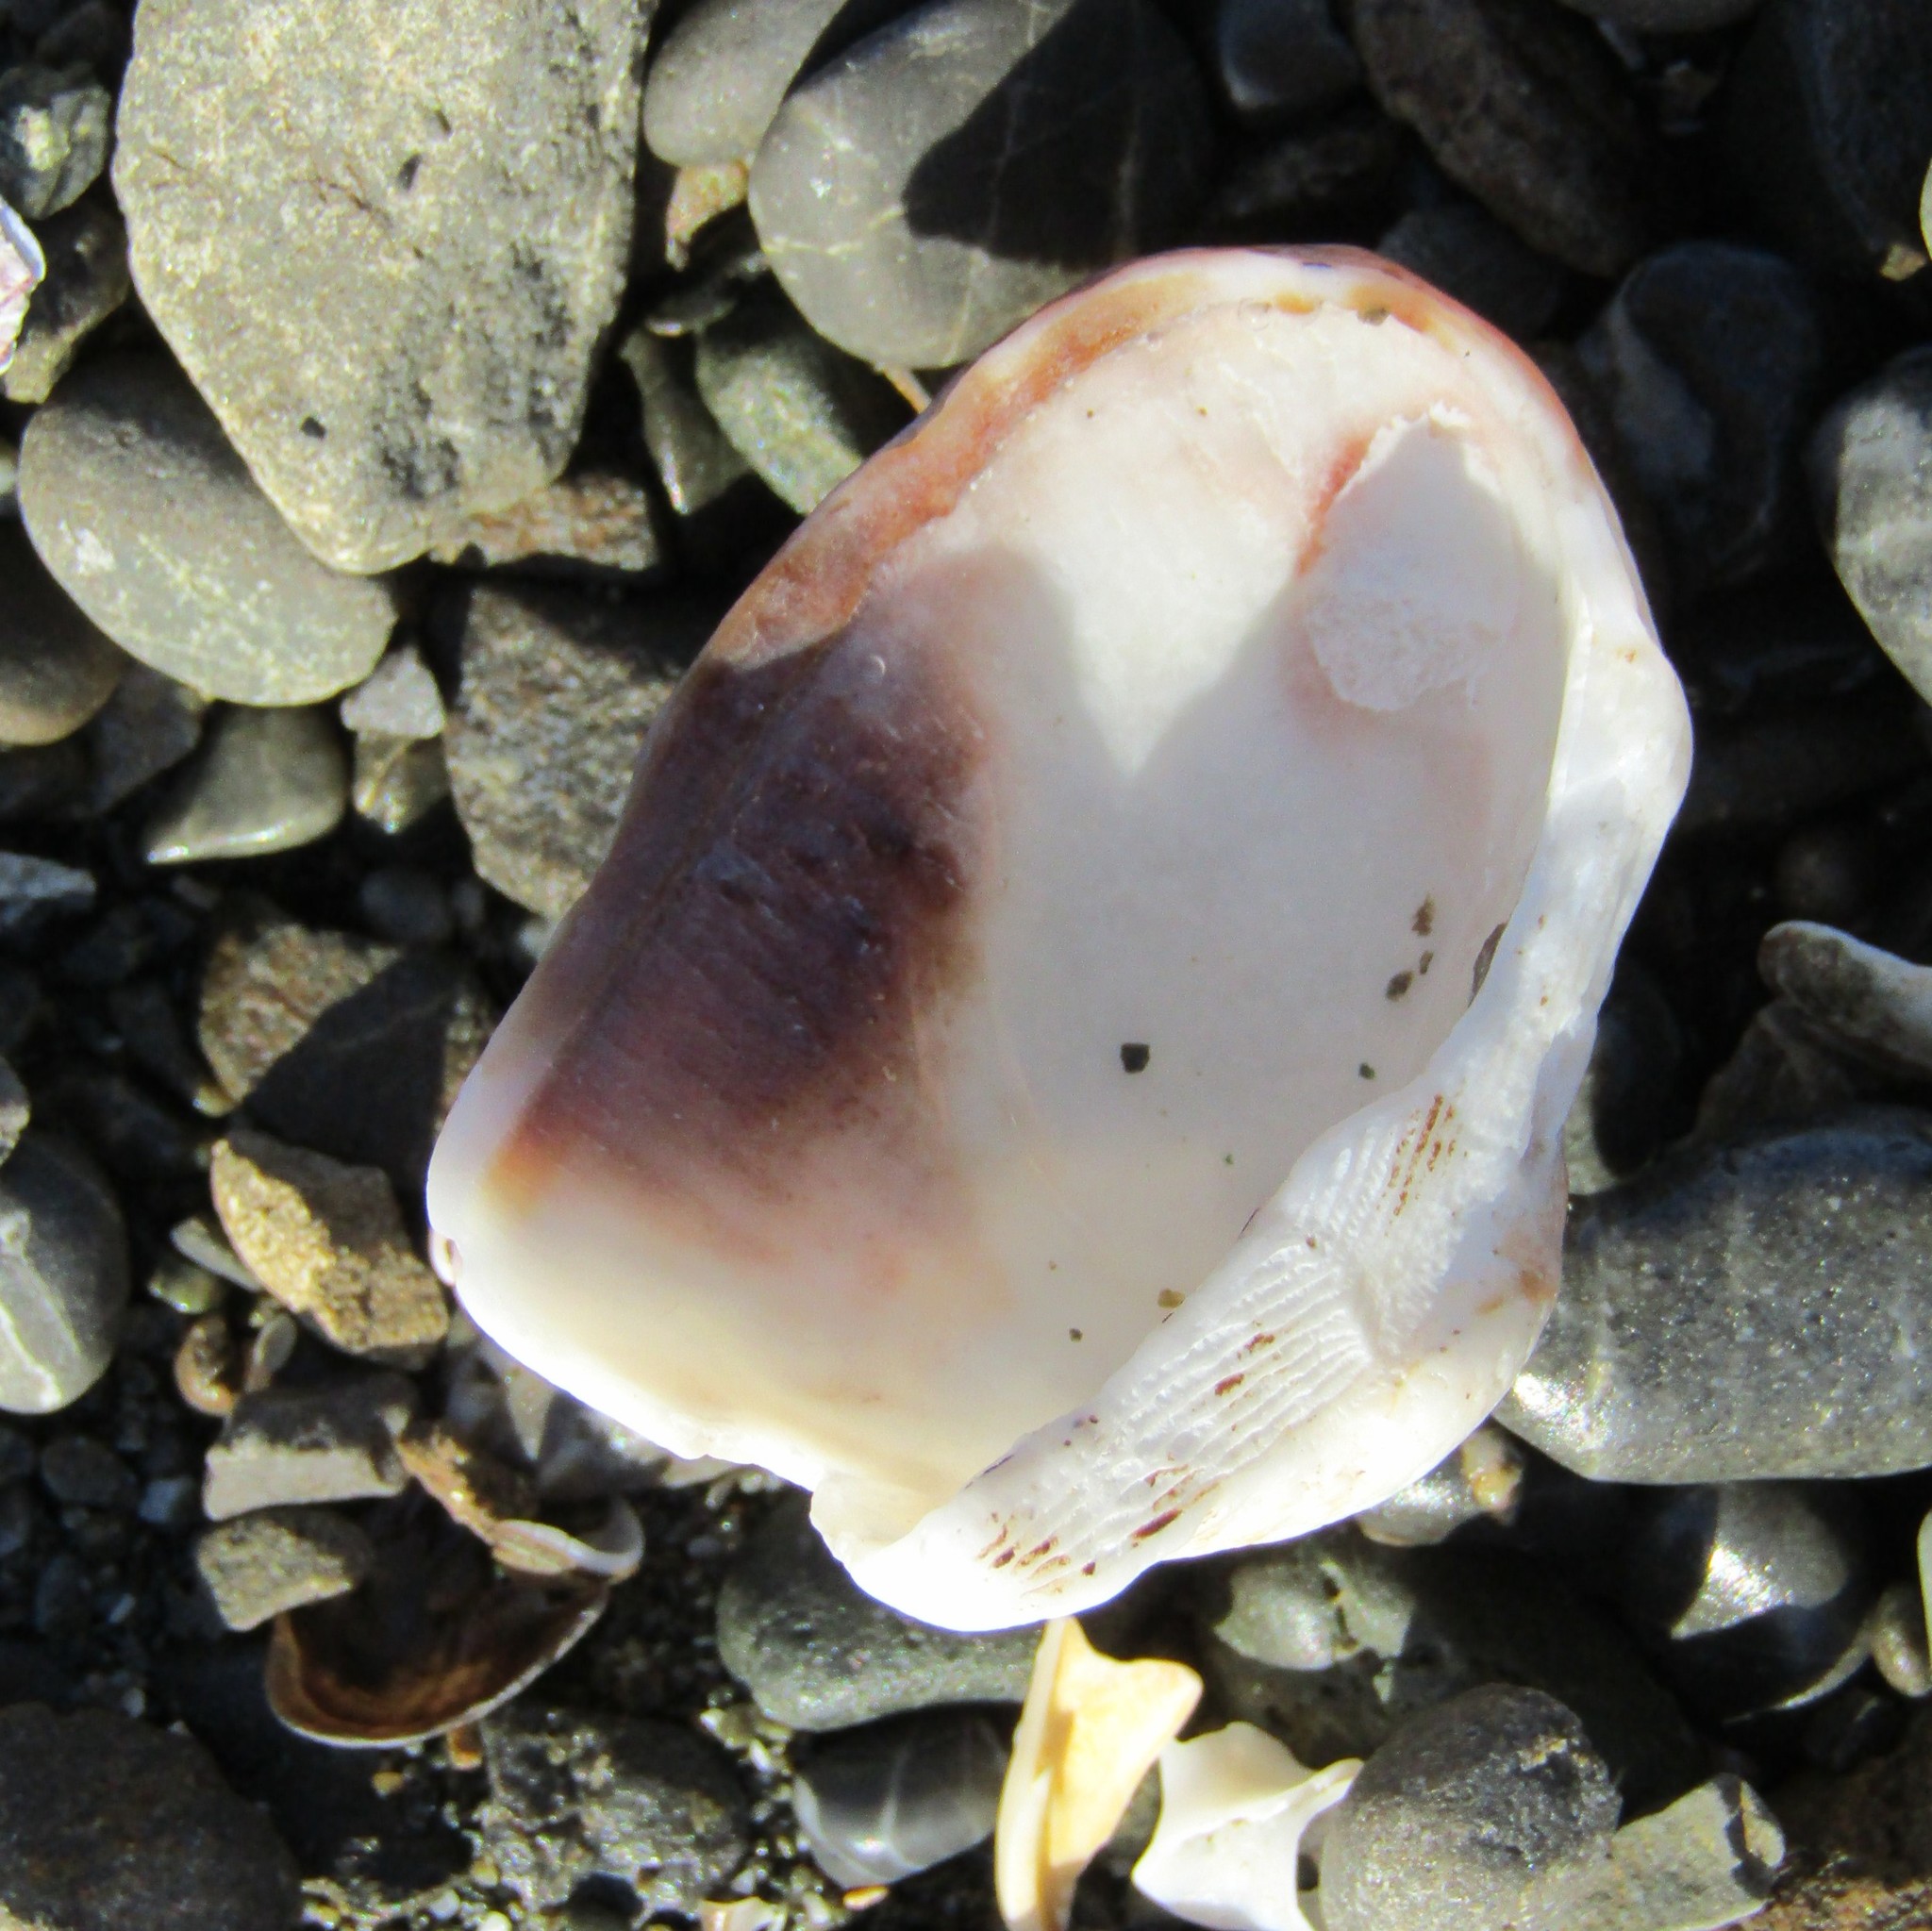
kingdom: Animalia
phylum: Mollusca
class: Bivalvia
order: Arcida
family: Arcidae
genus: Barbatia
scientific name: Barbatia novaezealandiae
